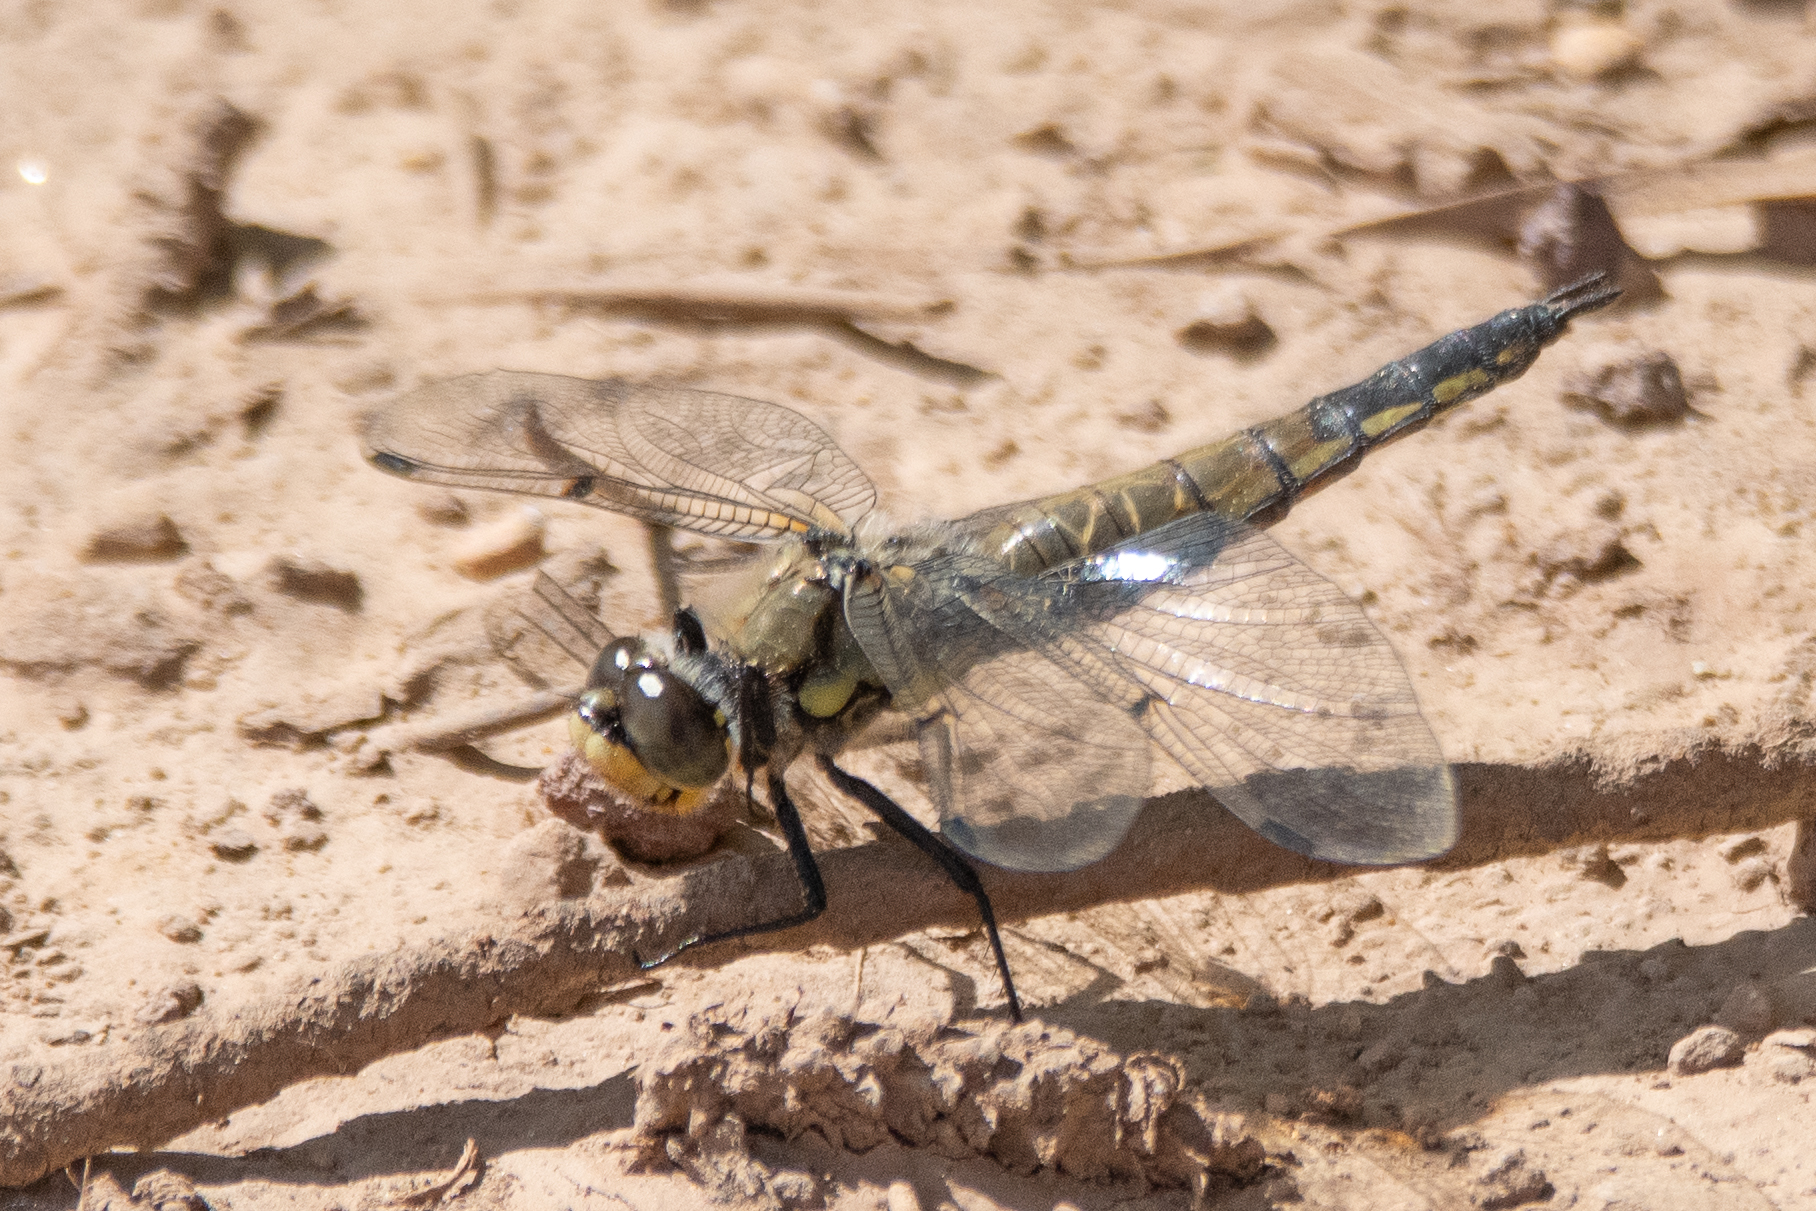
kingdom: Animalia
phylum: Arthropoda
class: Insecta
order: Odonata
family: Libellulidae
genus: Libellula
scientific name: Libellula quadrimaculata
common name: Four-spotted chaser
